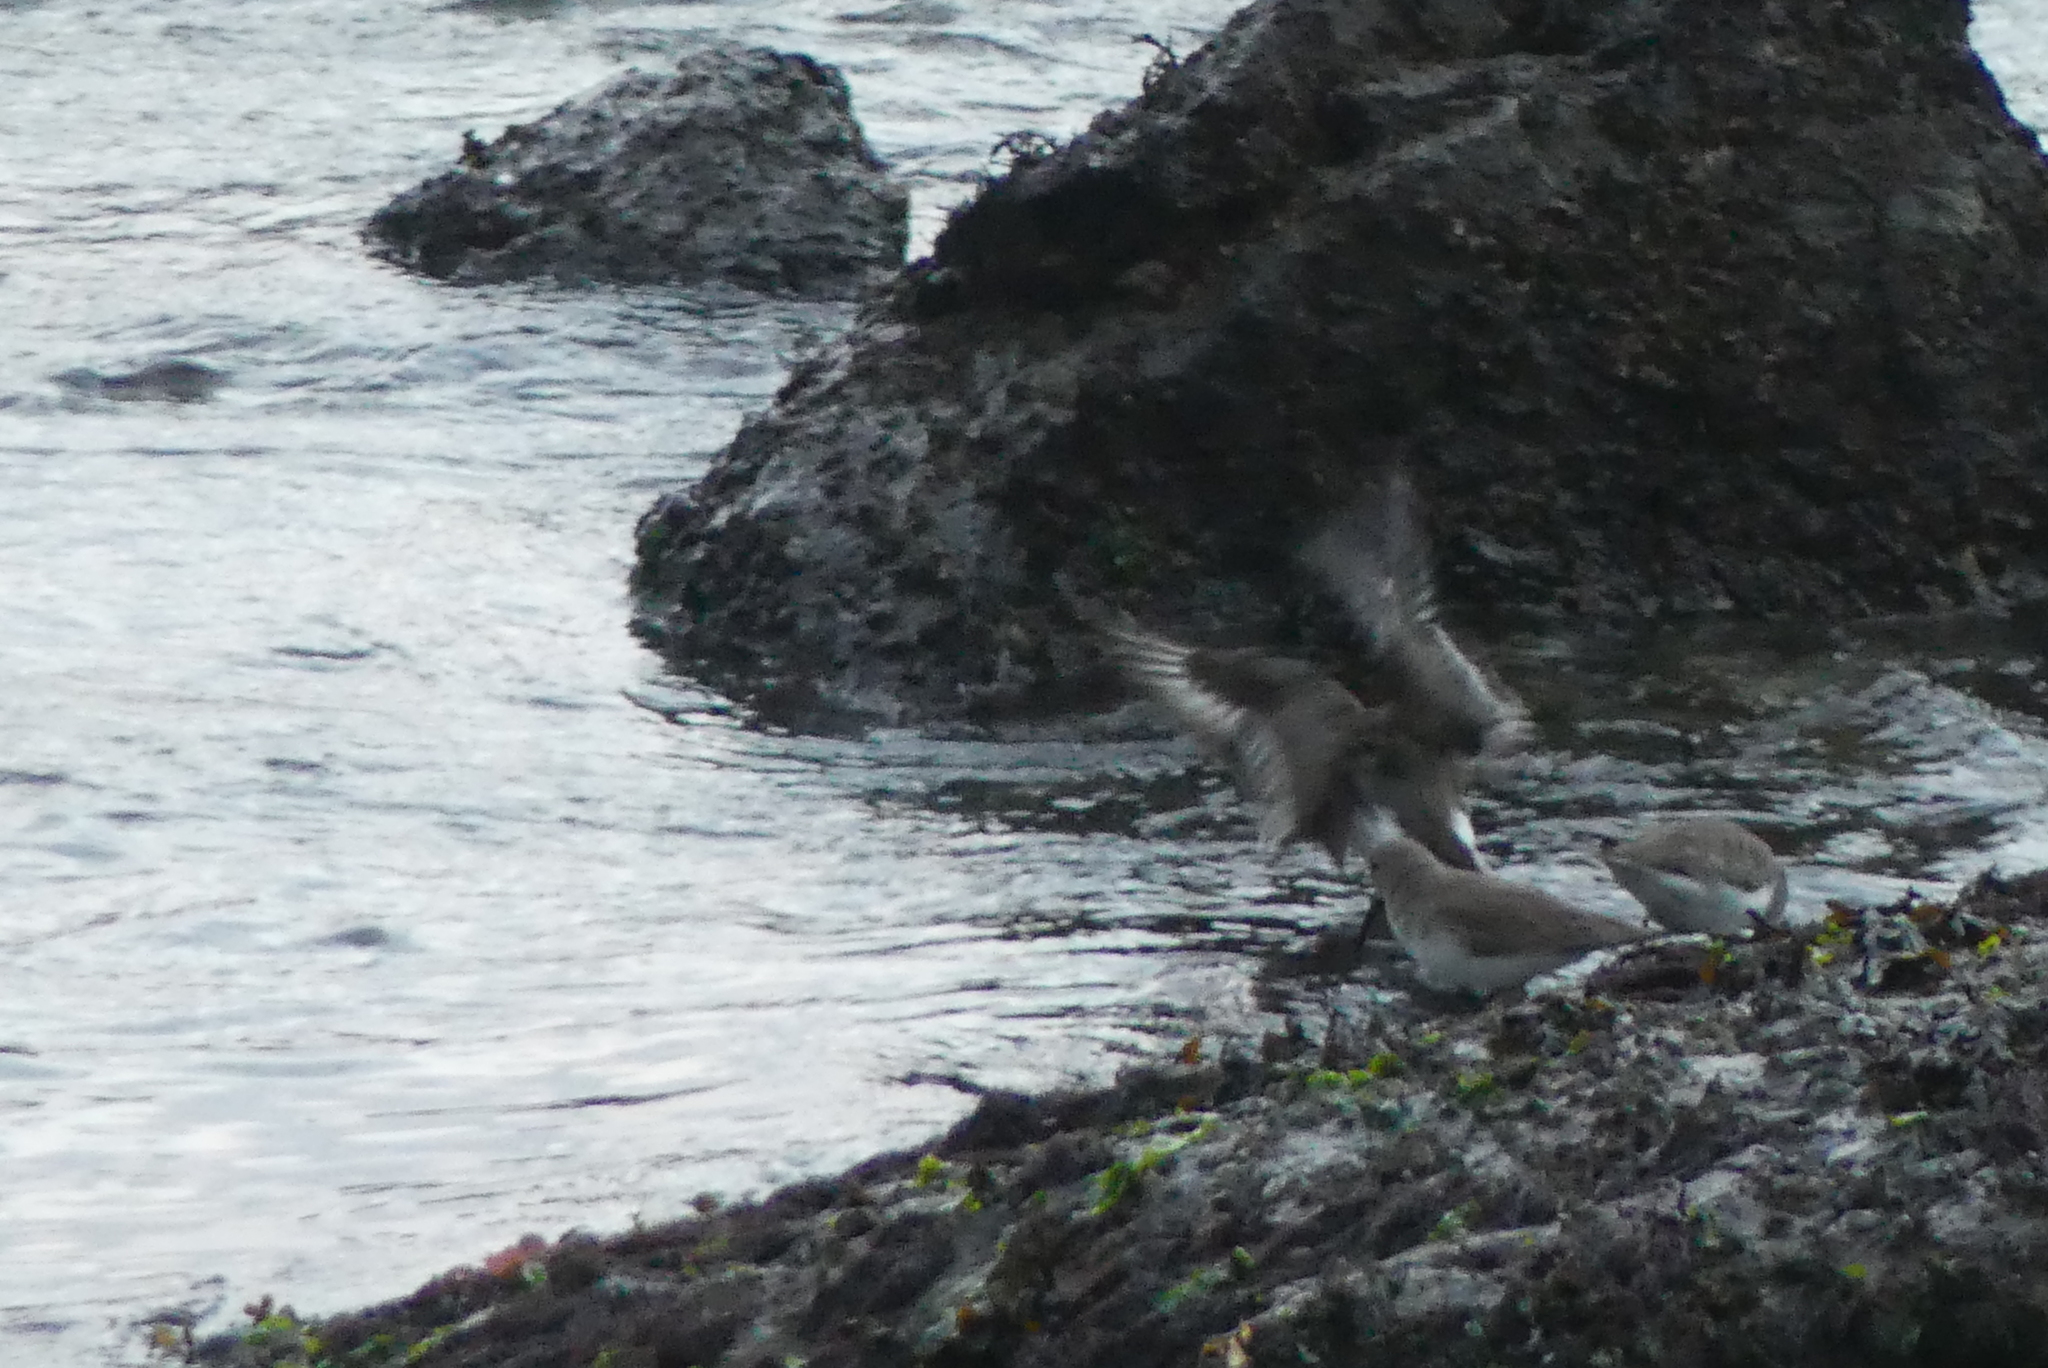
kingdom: Animalia
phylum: Chordata
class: Aves
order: Charadriiformes
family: Scolopacidae
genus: Calidris
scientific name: Calidris alpina
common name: Dunlin
